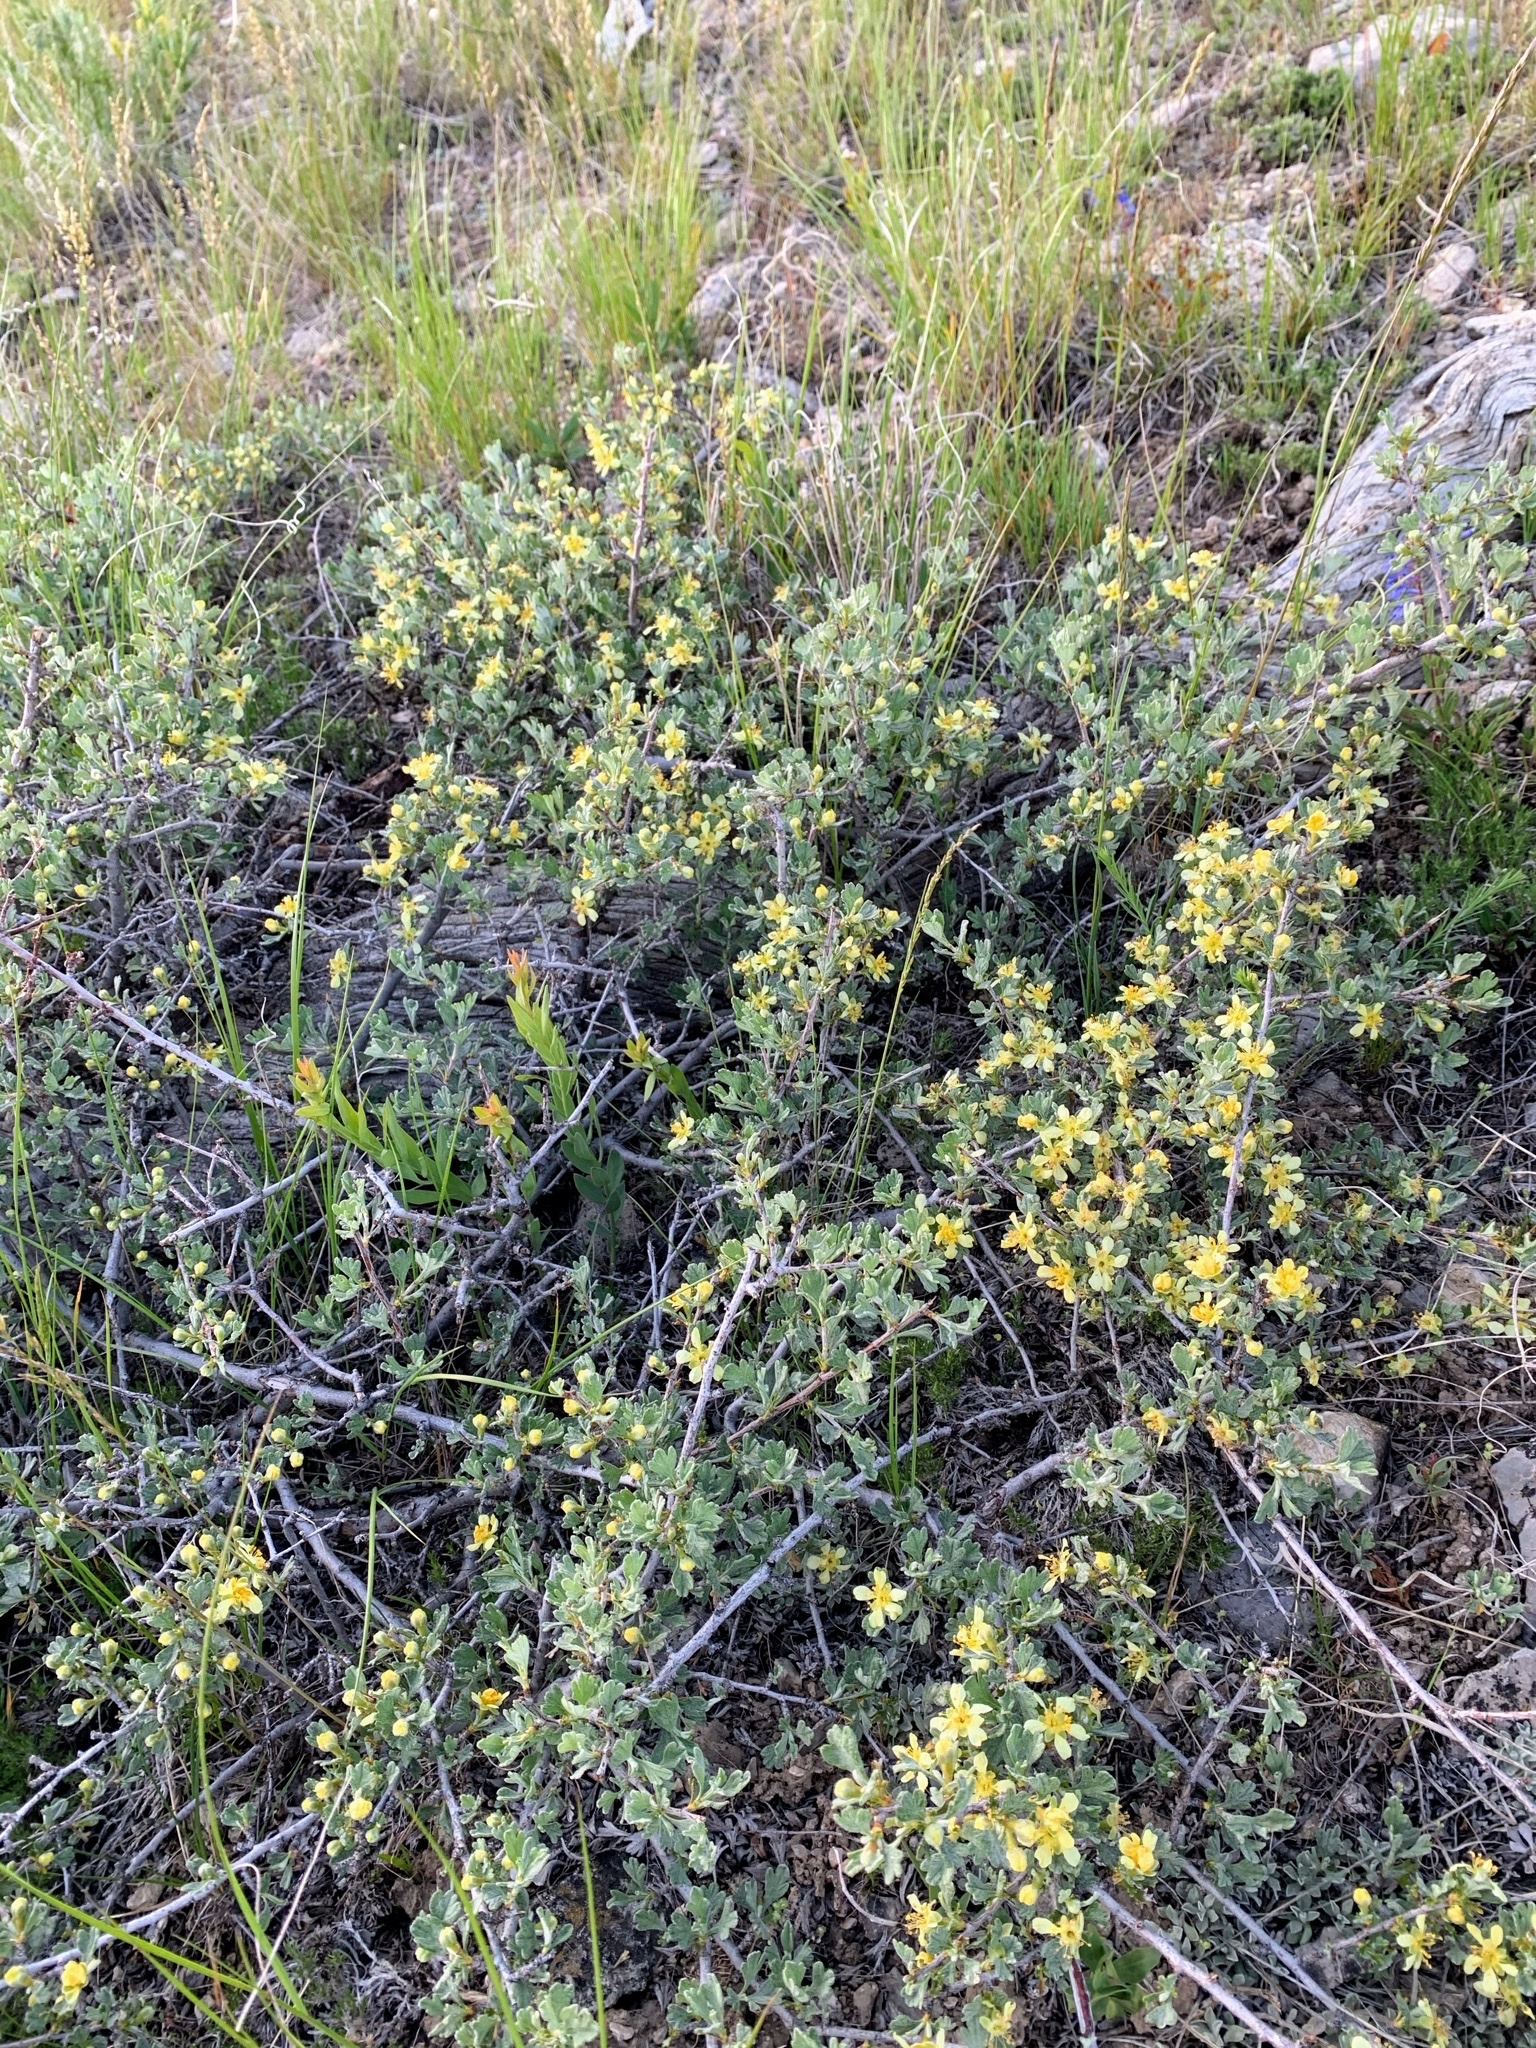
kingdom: Plantae
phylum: Tracheophyta
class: Magnoliopsida
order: Rosales
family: Rosaceae
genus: Purshia
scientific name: Purshia tridentata
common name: Antelope bitterbrush
